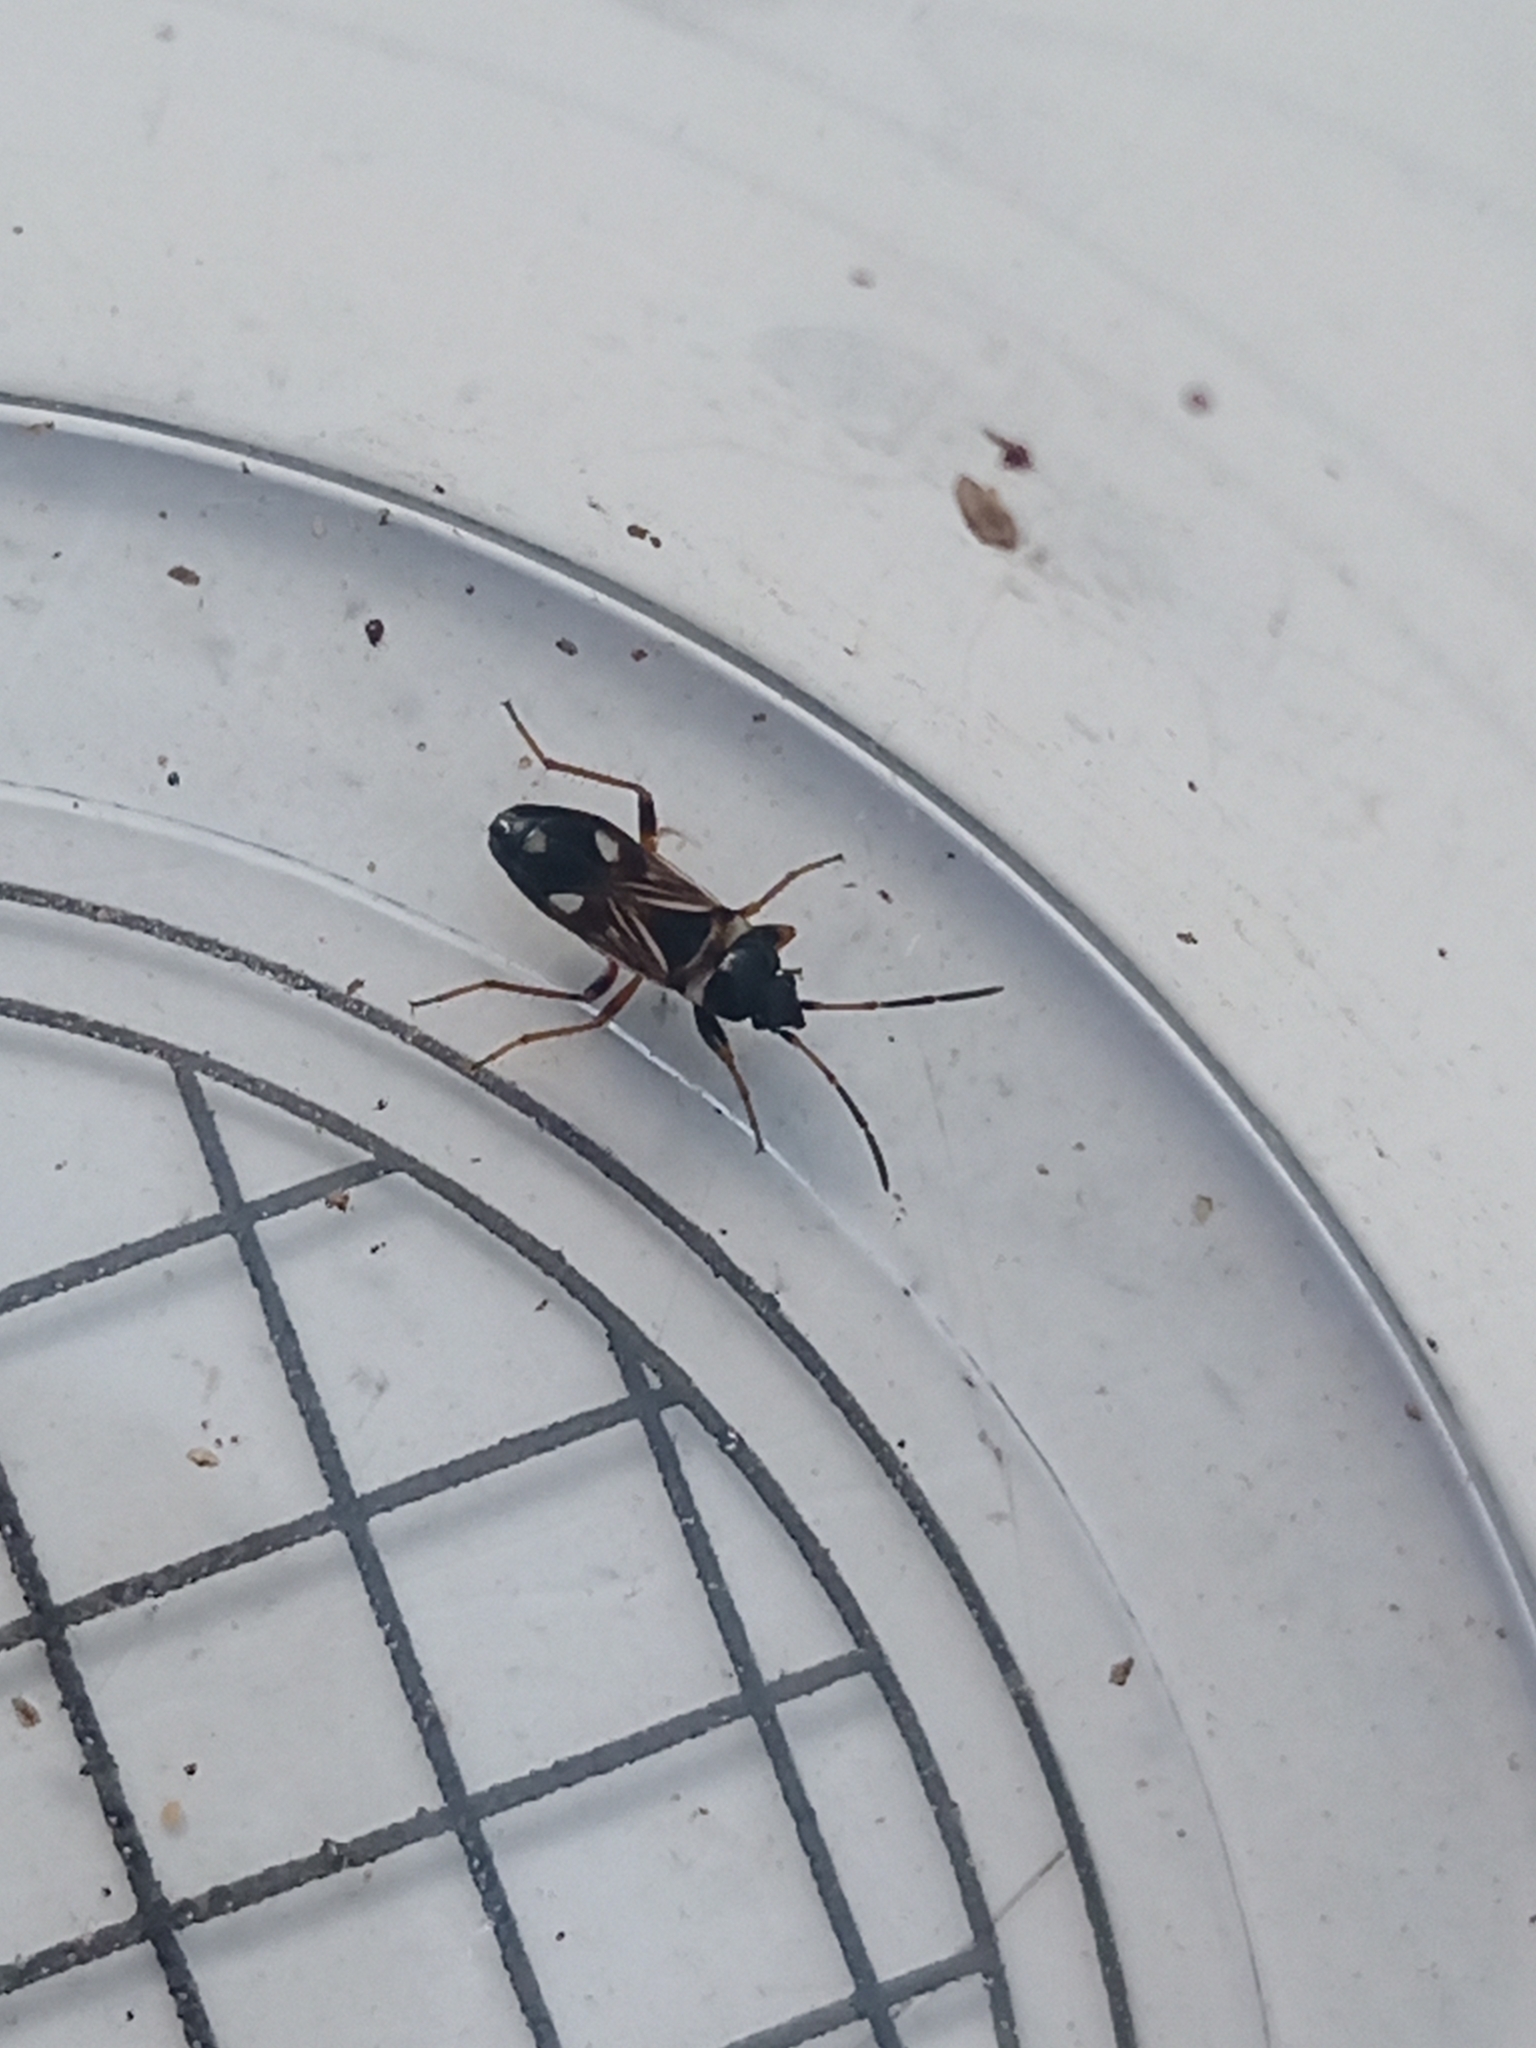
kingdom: Animalia
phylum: Arthropoda
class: Insecta
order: Hemiptera
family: Rhyparochromidae
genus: Raglius
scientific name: Raglius alboacuminatus
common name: Dirt-colored seed bug
